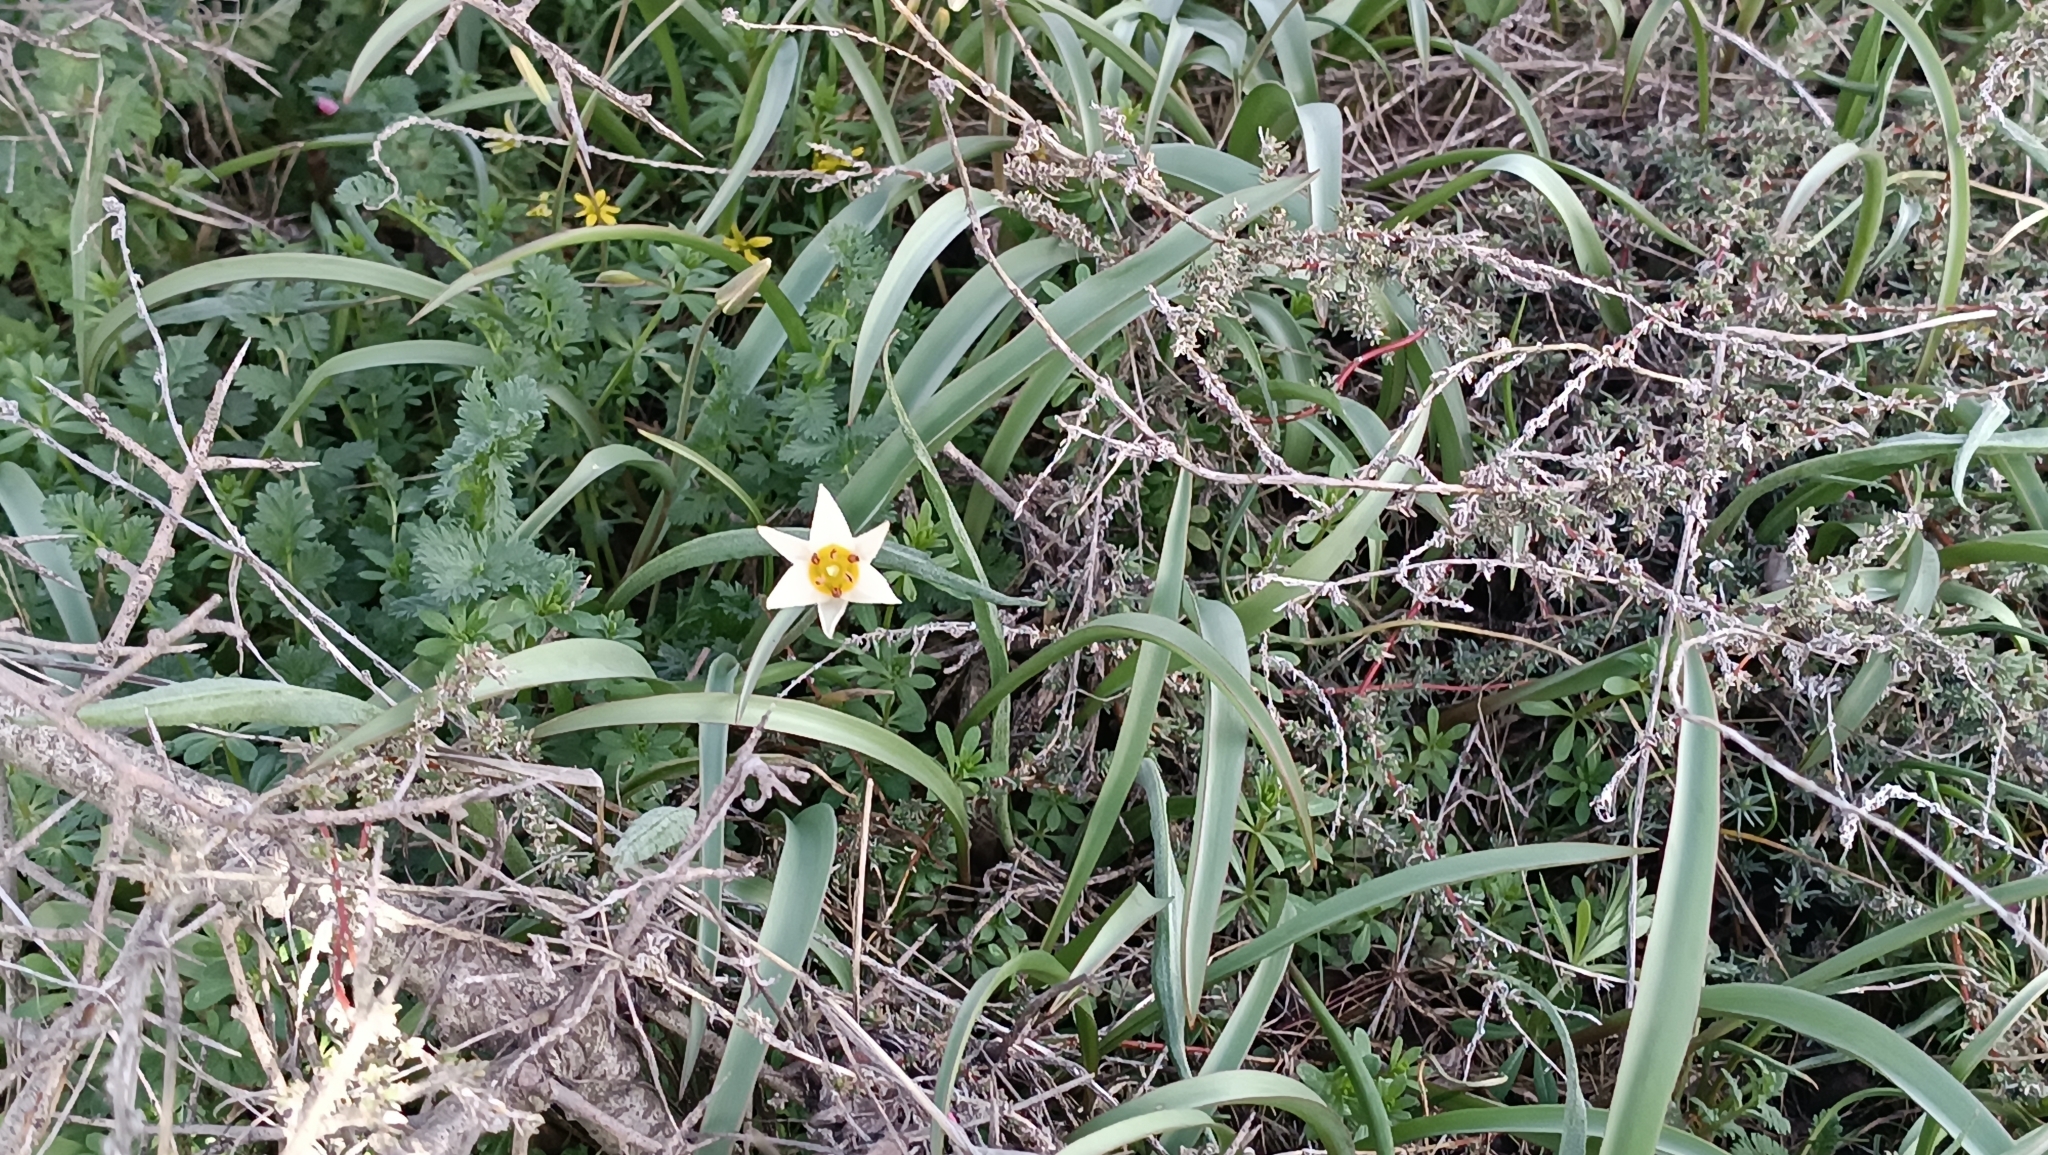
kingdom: Plantae
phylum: Tracheophyta
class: Liliopsida
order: Liliales
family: Liliaceae
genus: Tulipa
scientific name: Tulipa bifloriformis
